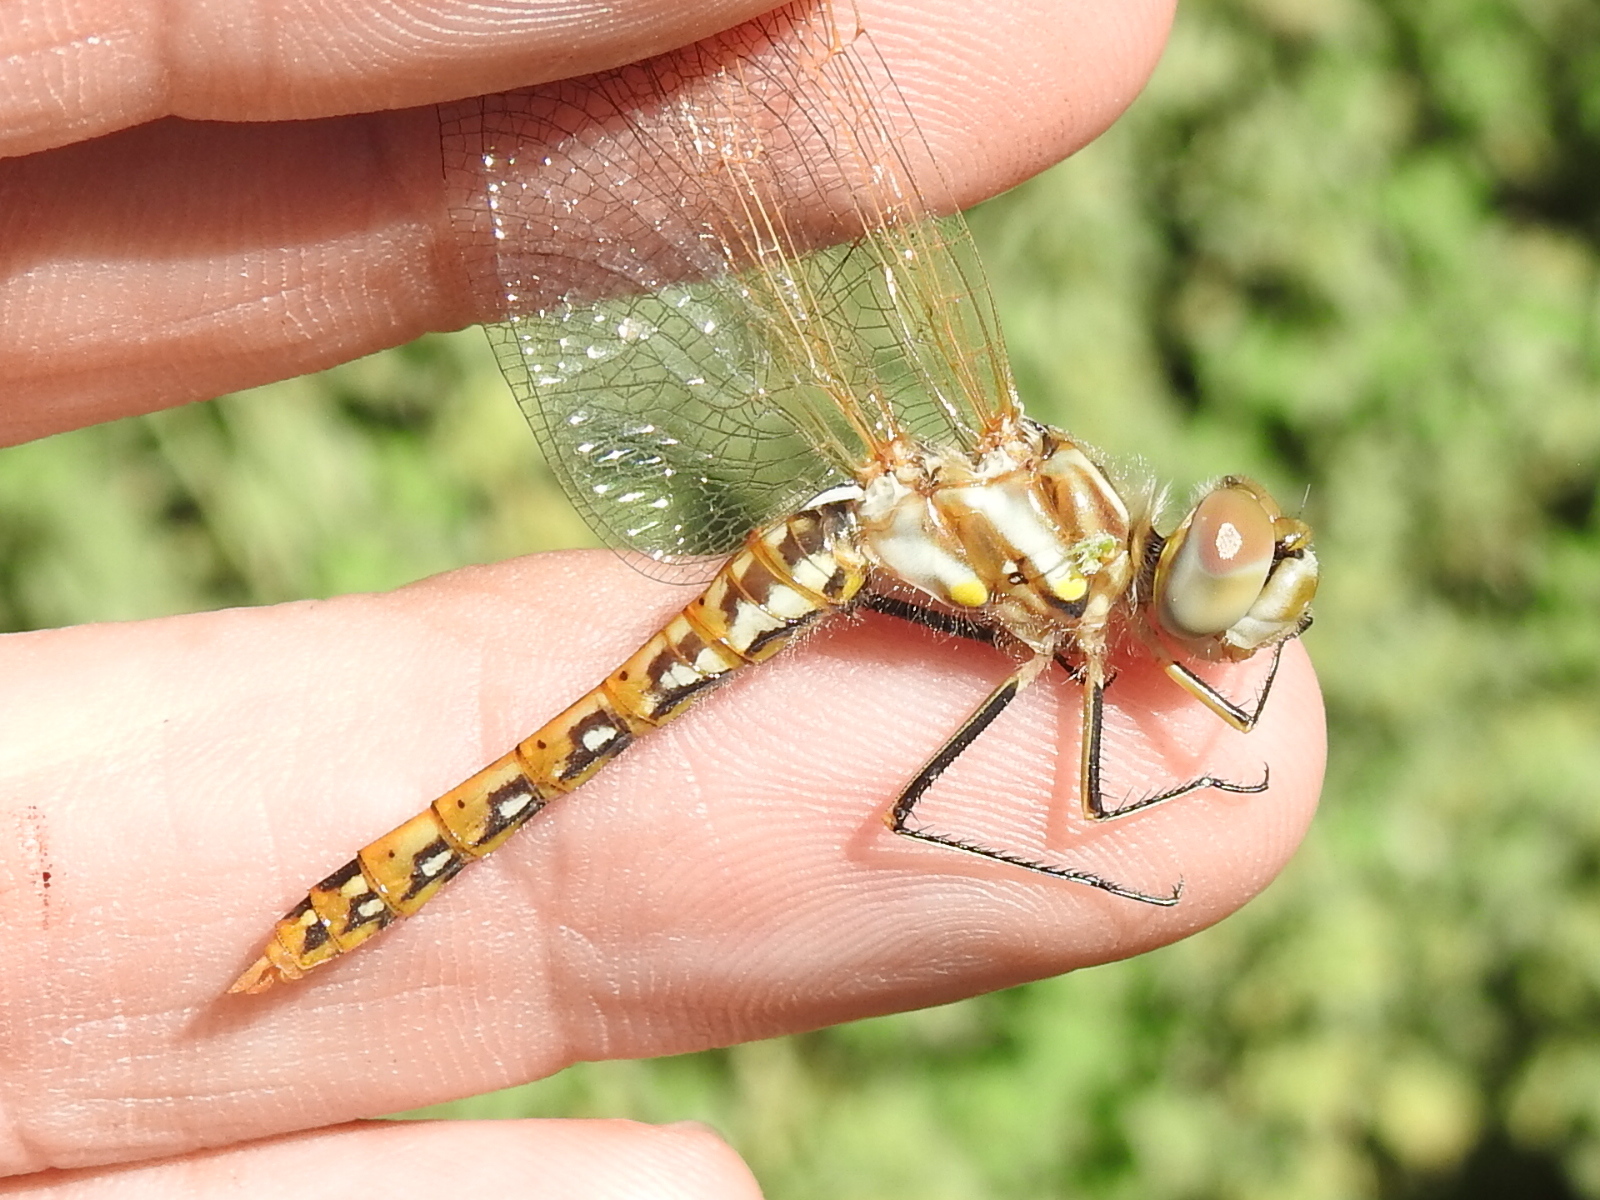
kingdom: Animalia
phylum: Arthropoda
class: Insecta
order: Odonata
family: Libellulidae
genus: Sympetrum
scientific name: Sympetrum corruptum
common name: Variegated meadowhawk
